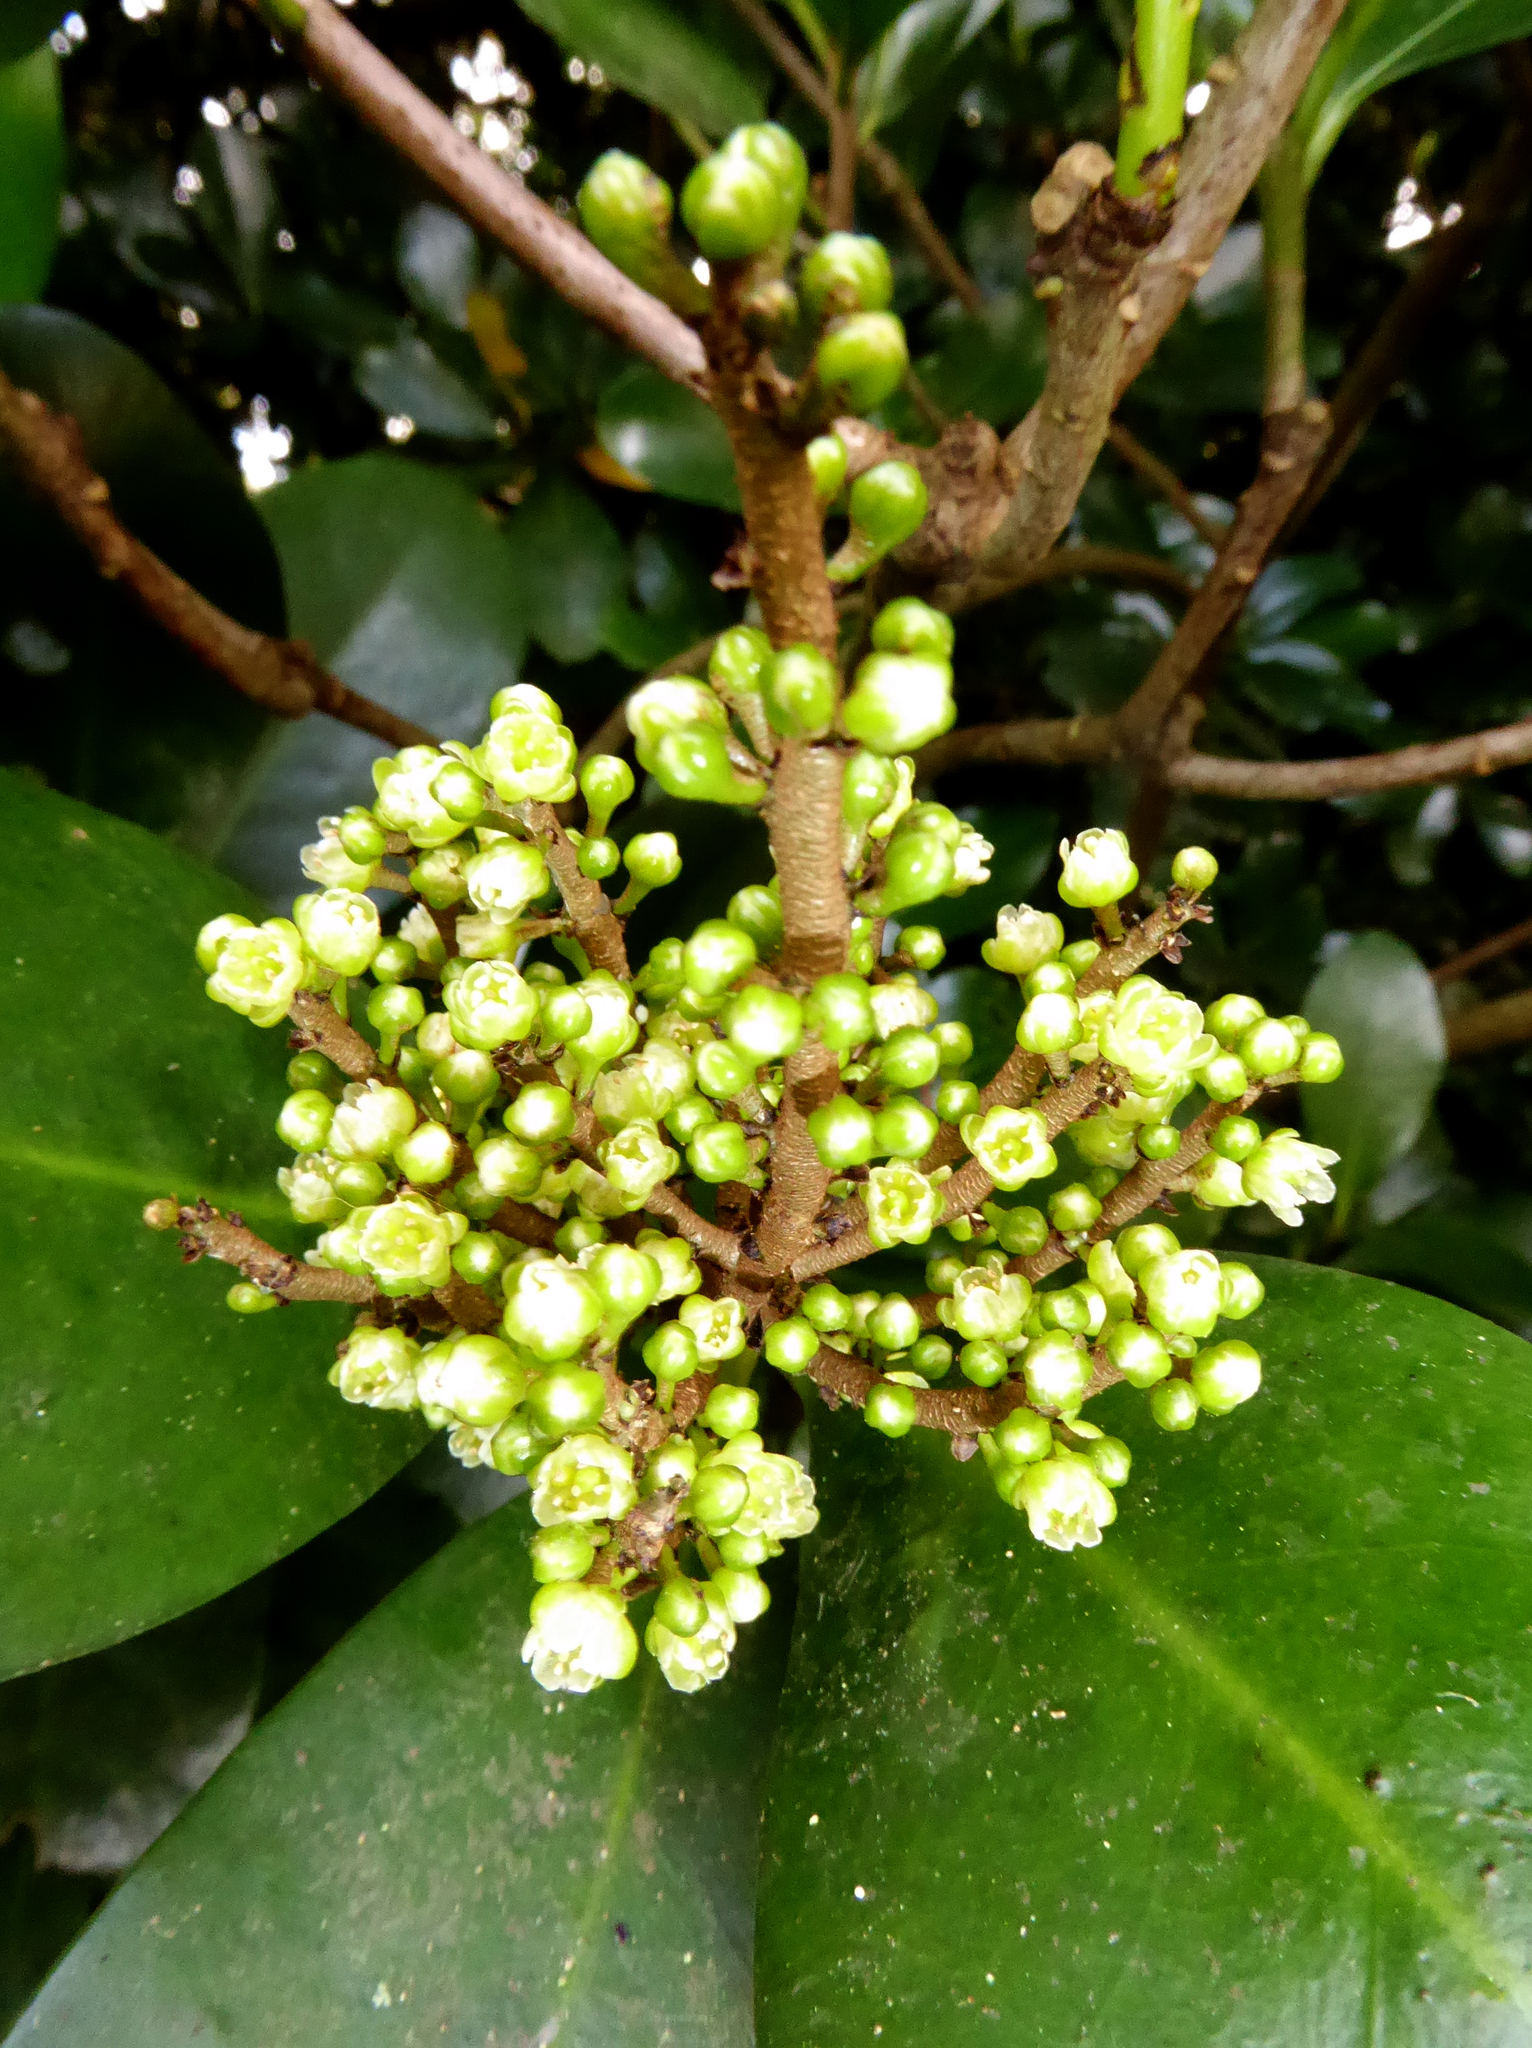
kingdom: Plantae
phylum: Tracheophyta
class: Magnoliopsida
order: Cucurbitales
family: Corynocarpaceae
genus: Corynocarpus
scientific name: Corynocarpus laevigatus
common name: New zealand laurel
